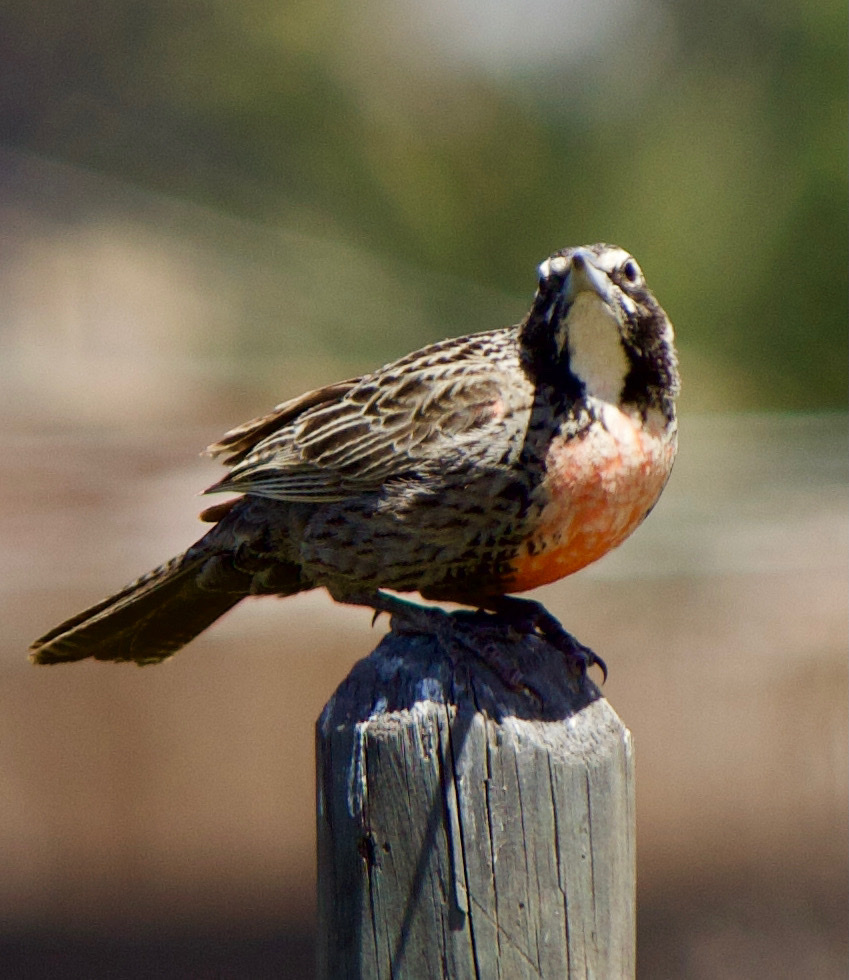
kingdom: Animalia
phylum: Chordata
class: Aves
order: Passeriformes
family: Icteridae
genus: Sturnella
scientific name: Sturnella loyca
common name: Long-tailed meadowlark
